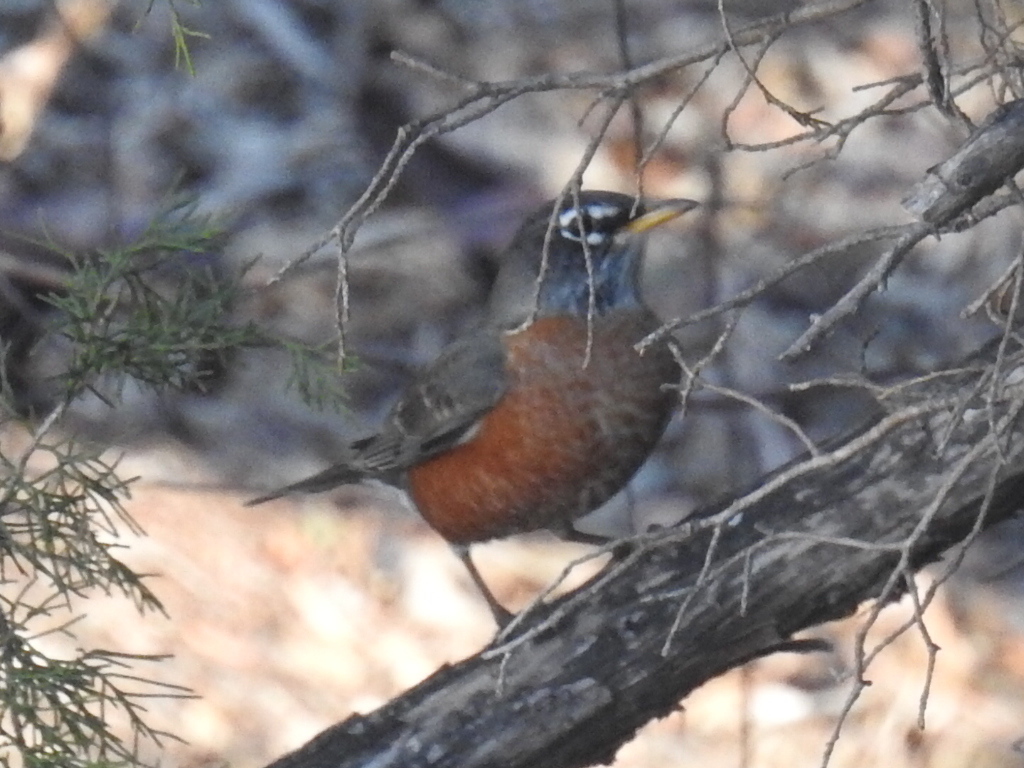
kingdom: Animalia
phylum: Chordata
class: Aves
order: Passeriformes
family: Turdidae
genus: Turdus
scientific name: Turdus migratorius
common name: American robin
